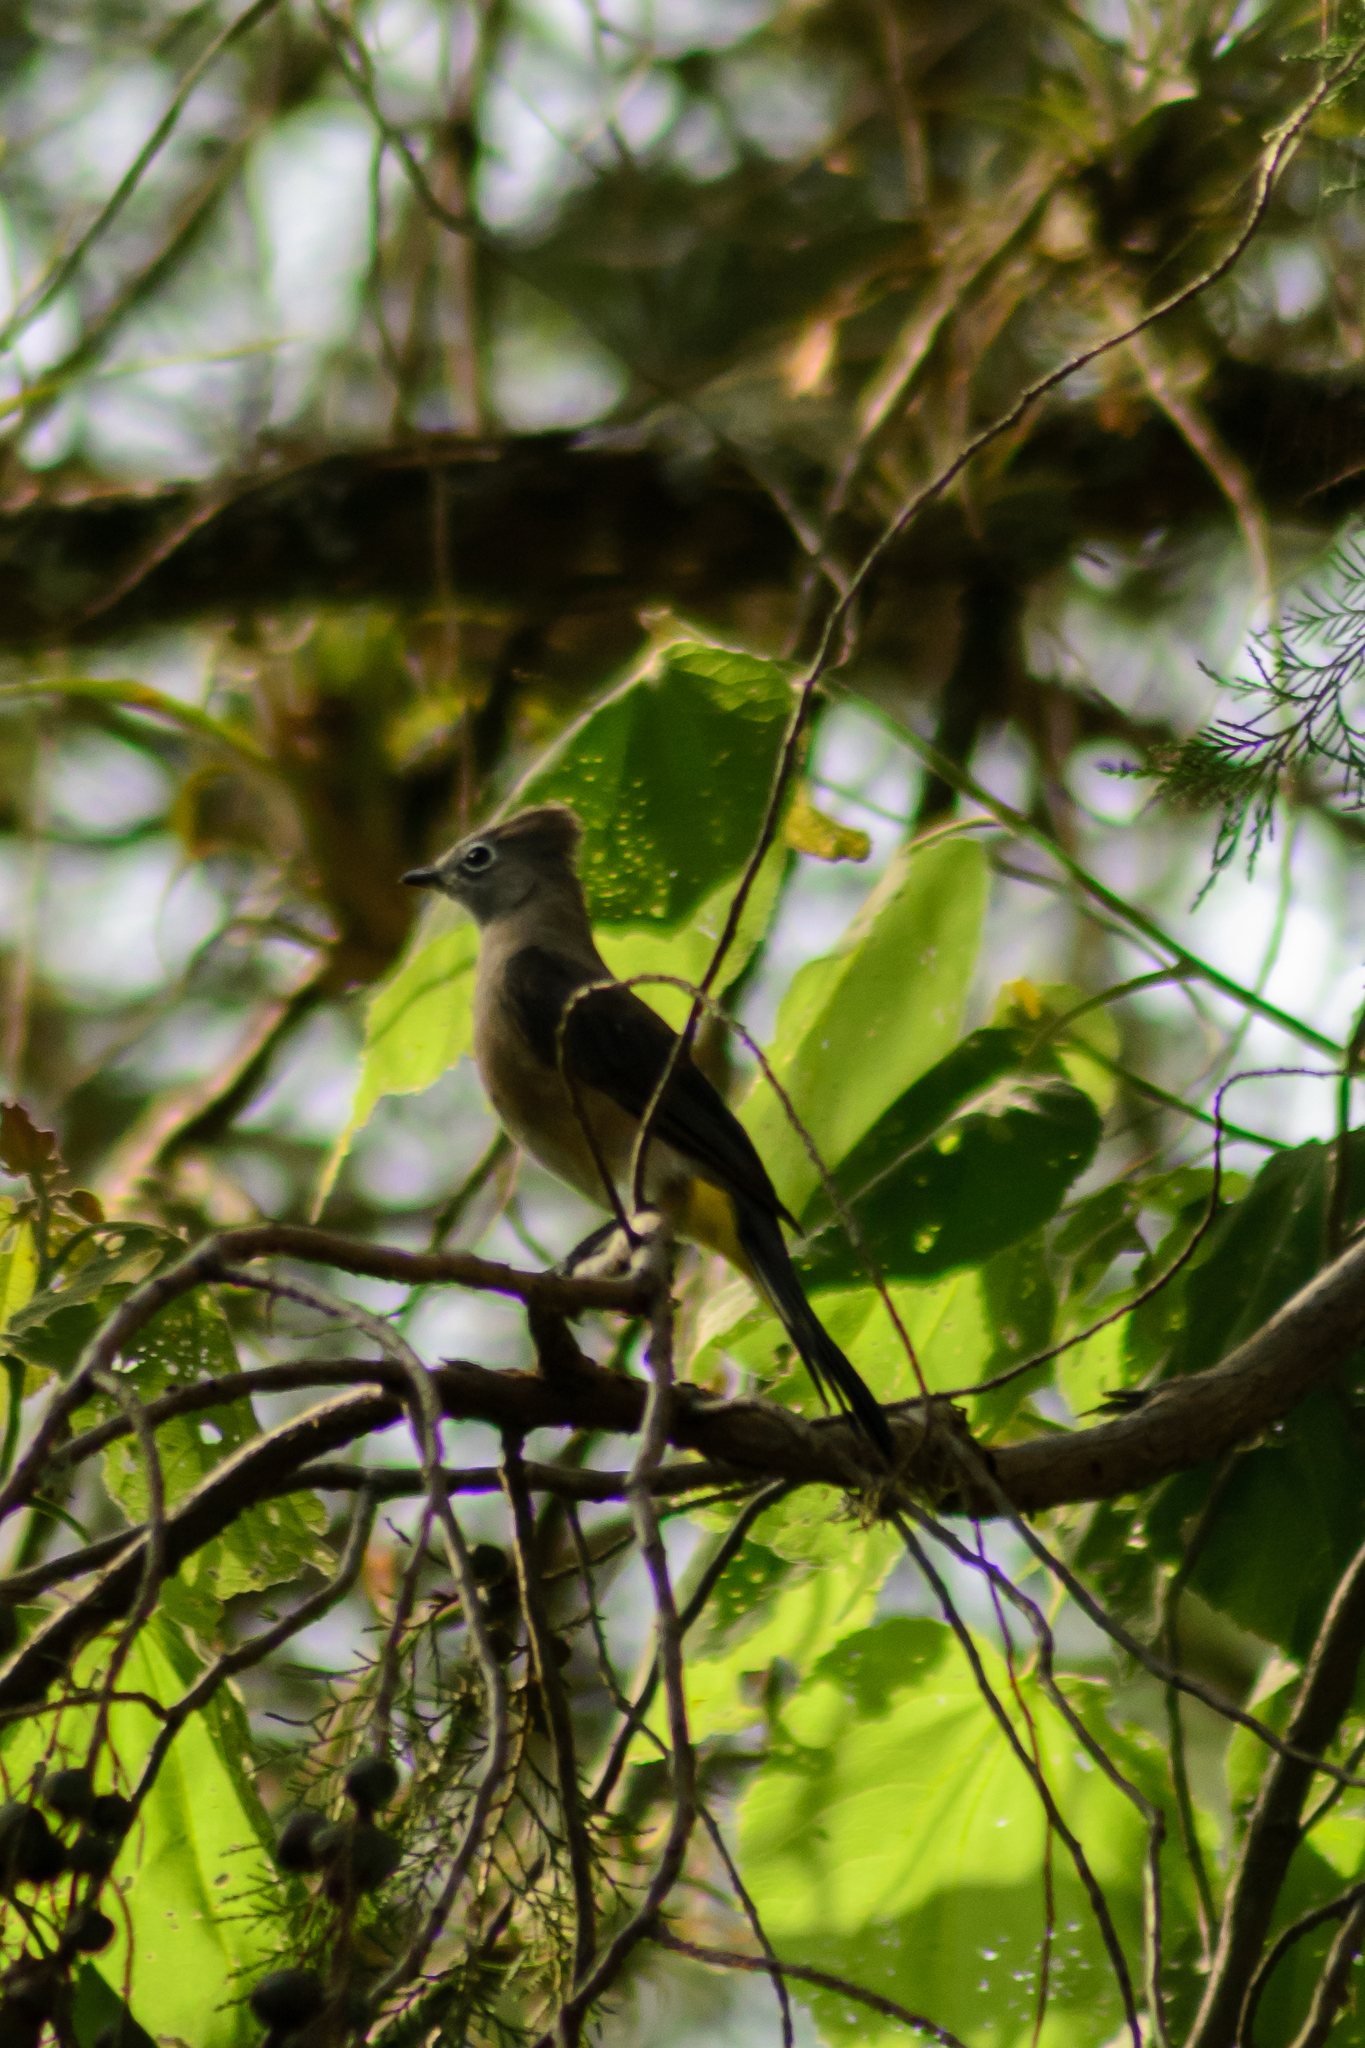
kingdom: Animalia
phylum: Chordata
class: Aves
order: Passeriformes
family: Ptilogonatidae
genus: Ptilogonys
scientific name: Ptilogonys cinereus
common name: Gray silky-flycatcher
